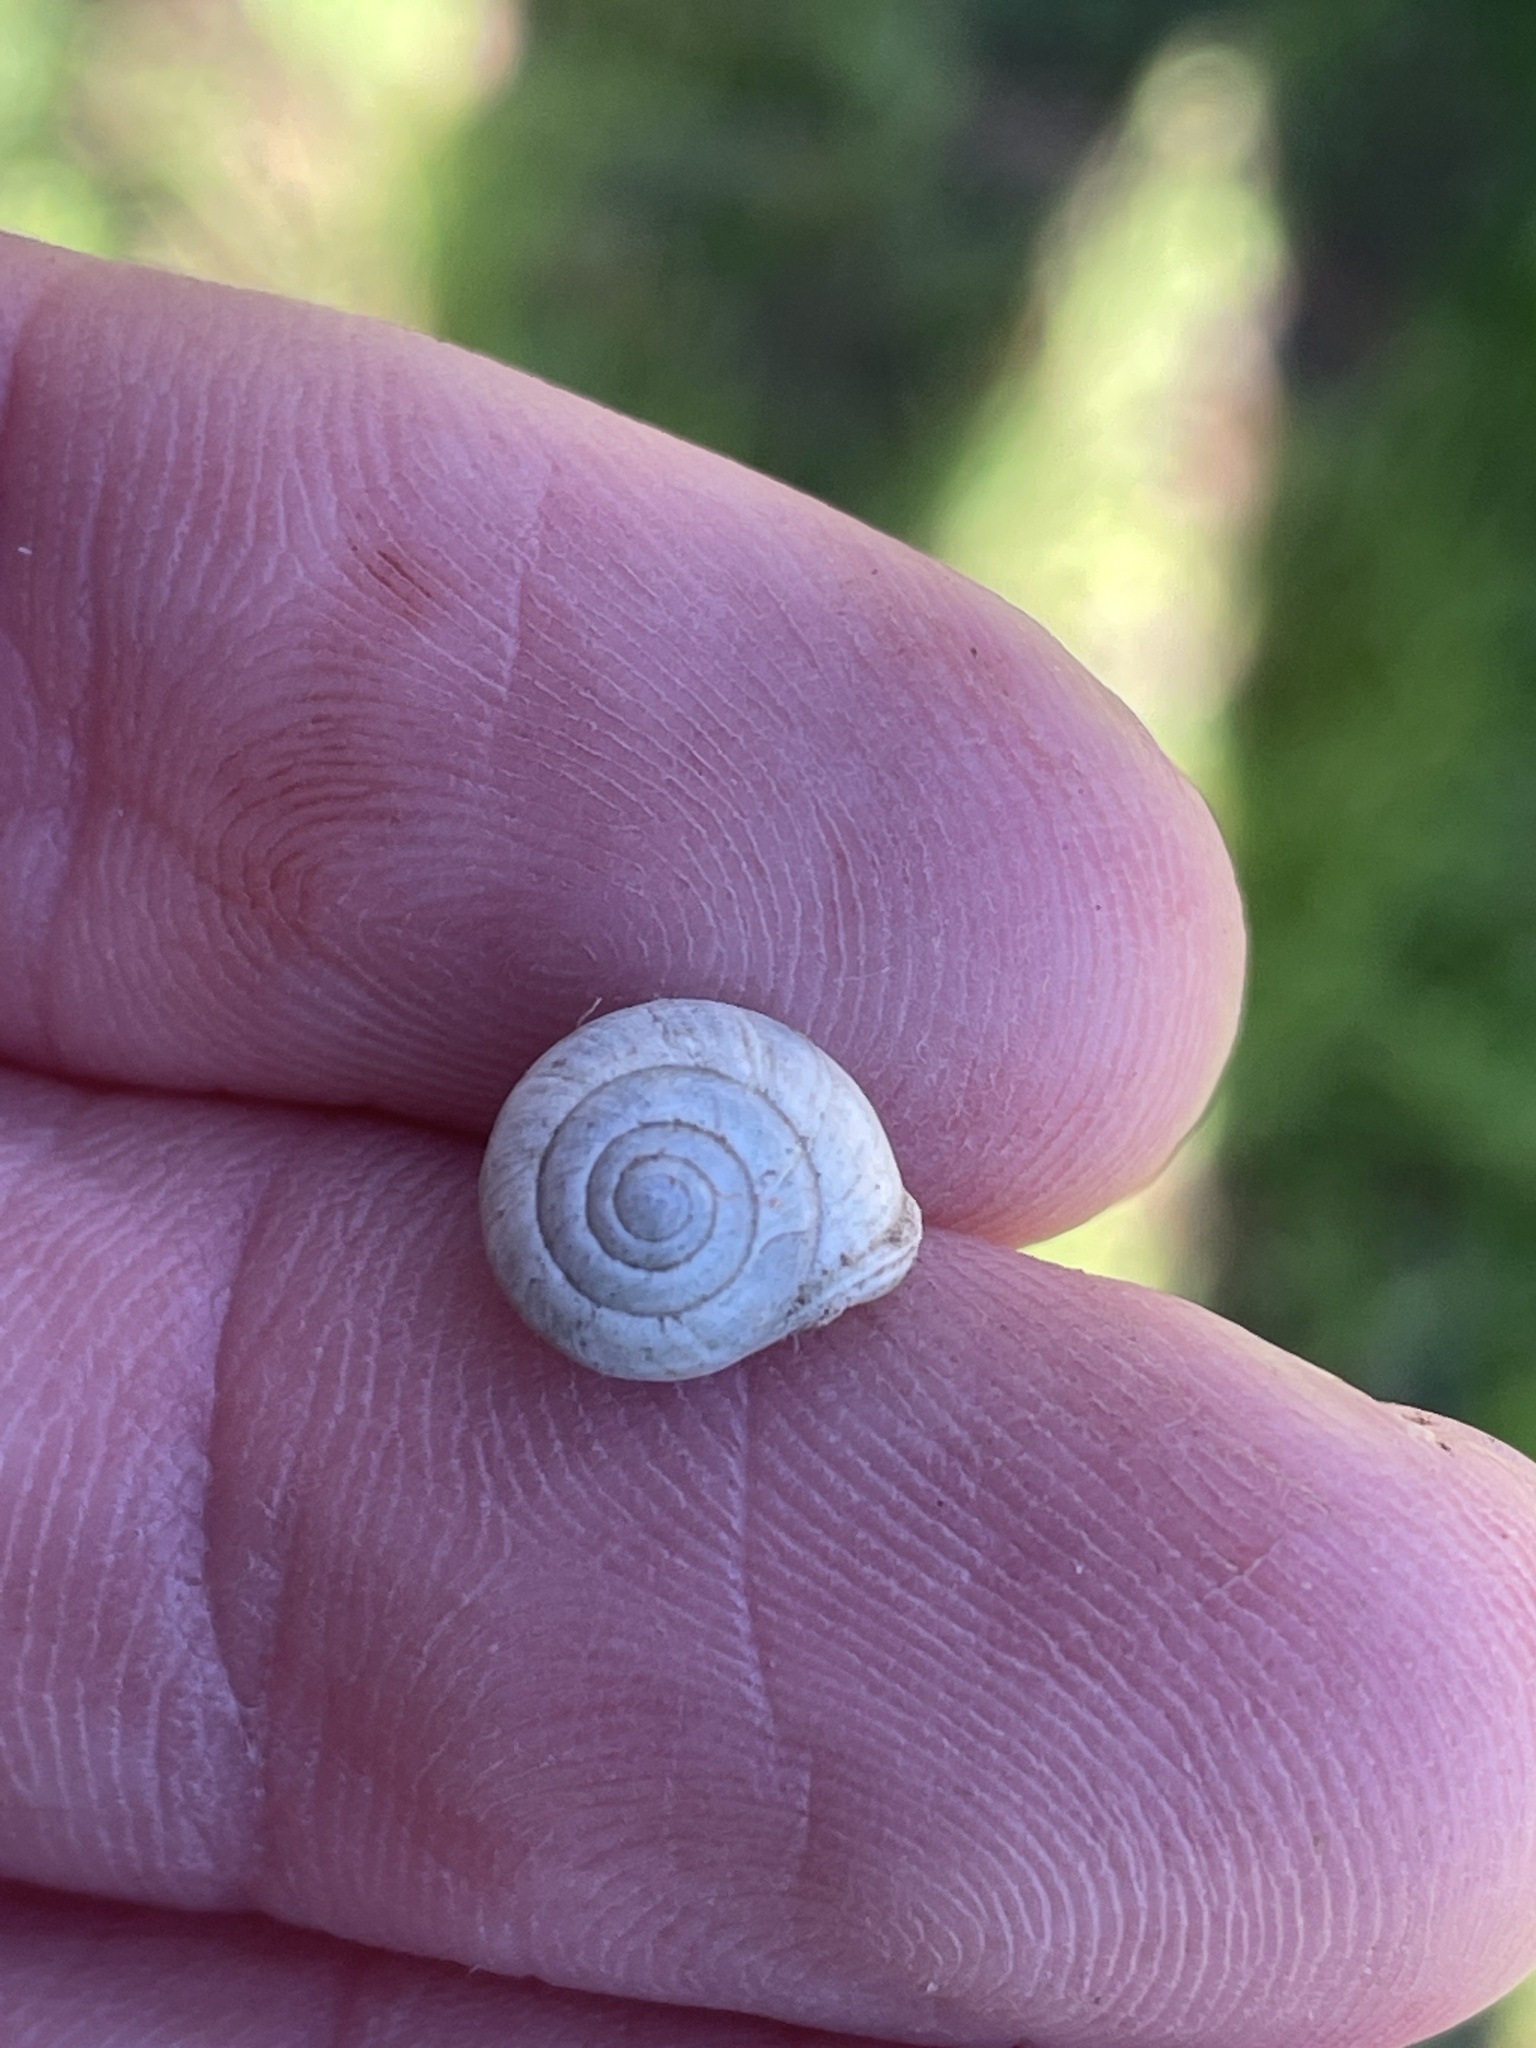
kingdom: Animalia
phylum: Mollusca
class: Gastropoda
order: Cycloneritida
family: Helicinidae
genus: Helicina
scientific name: Helicina orbiculata
